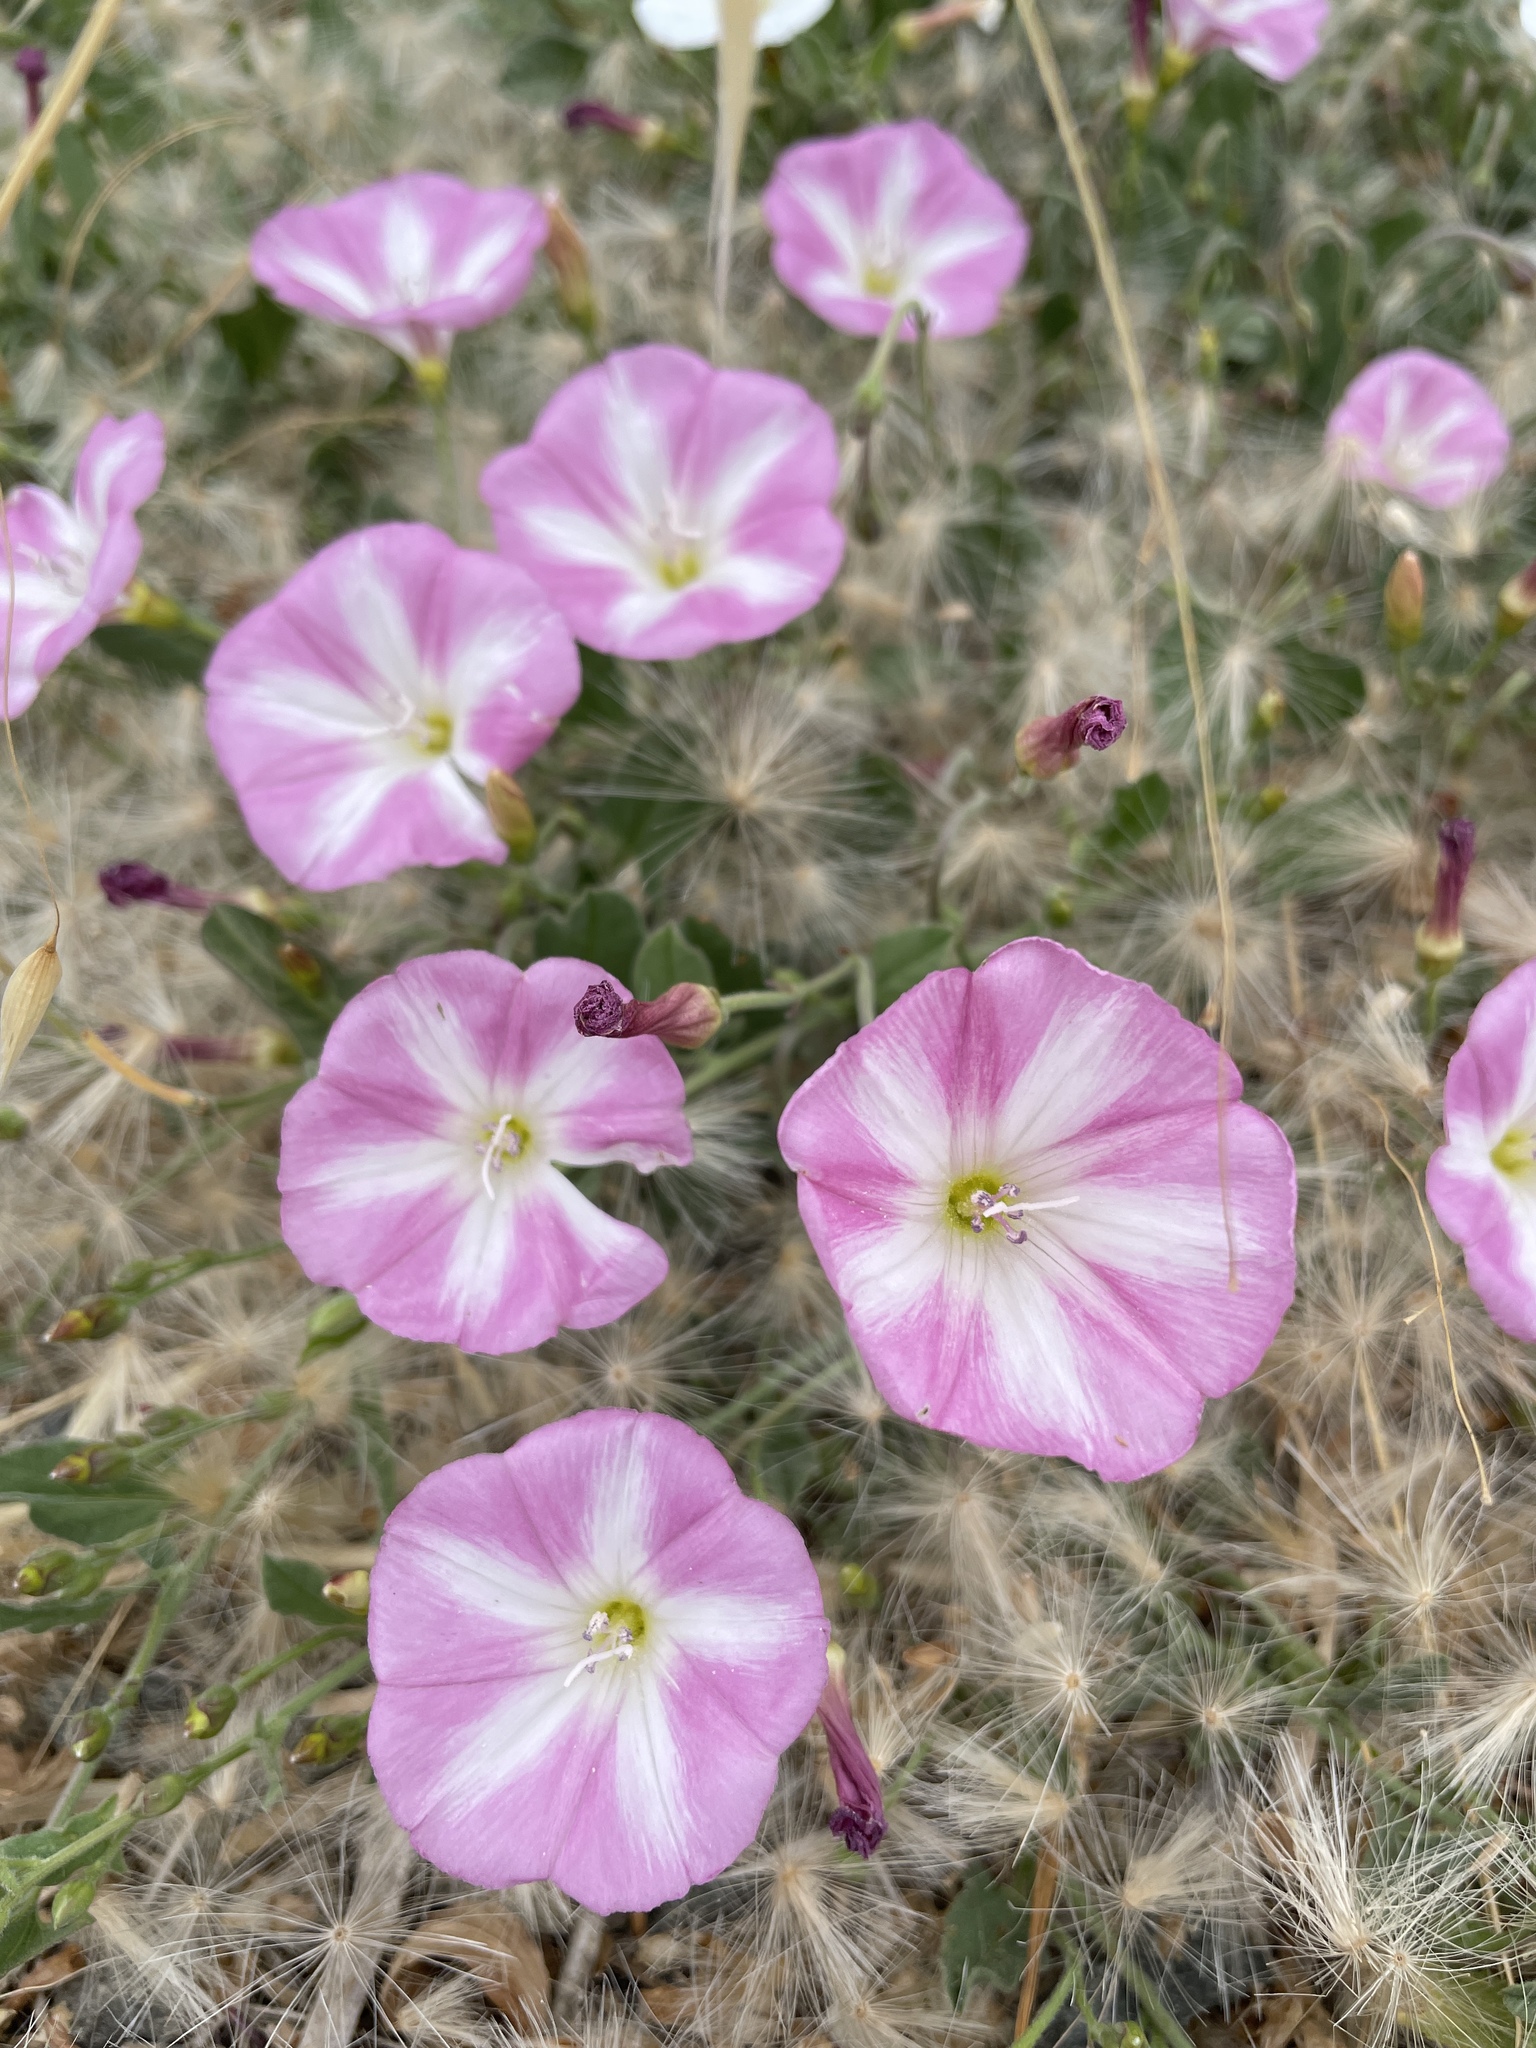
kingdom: Plantae
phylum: Tracheophyta
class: Magnoliopsida
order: Solanales
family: Convolvulaceae
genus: Convolvulus
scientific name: Convolvulus arvensis
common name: Field bindweed
